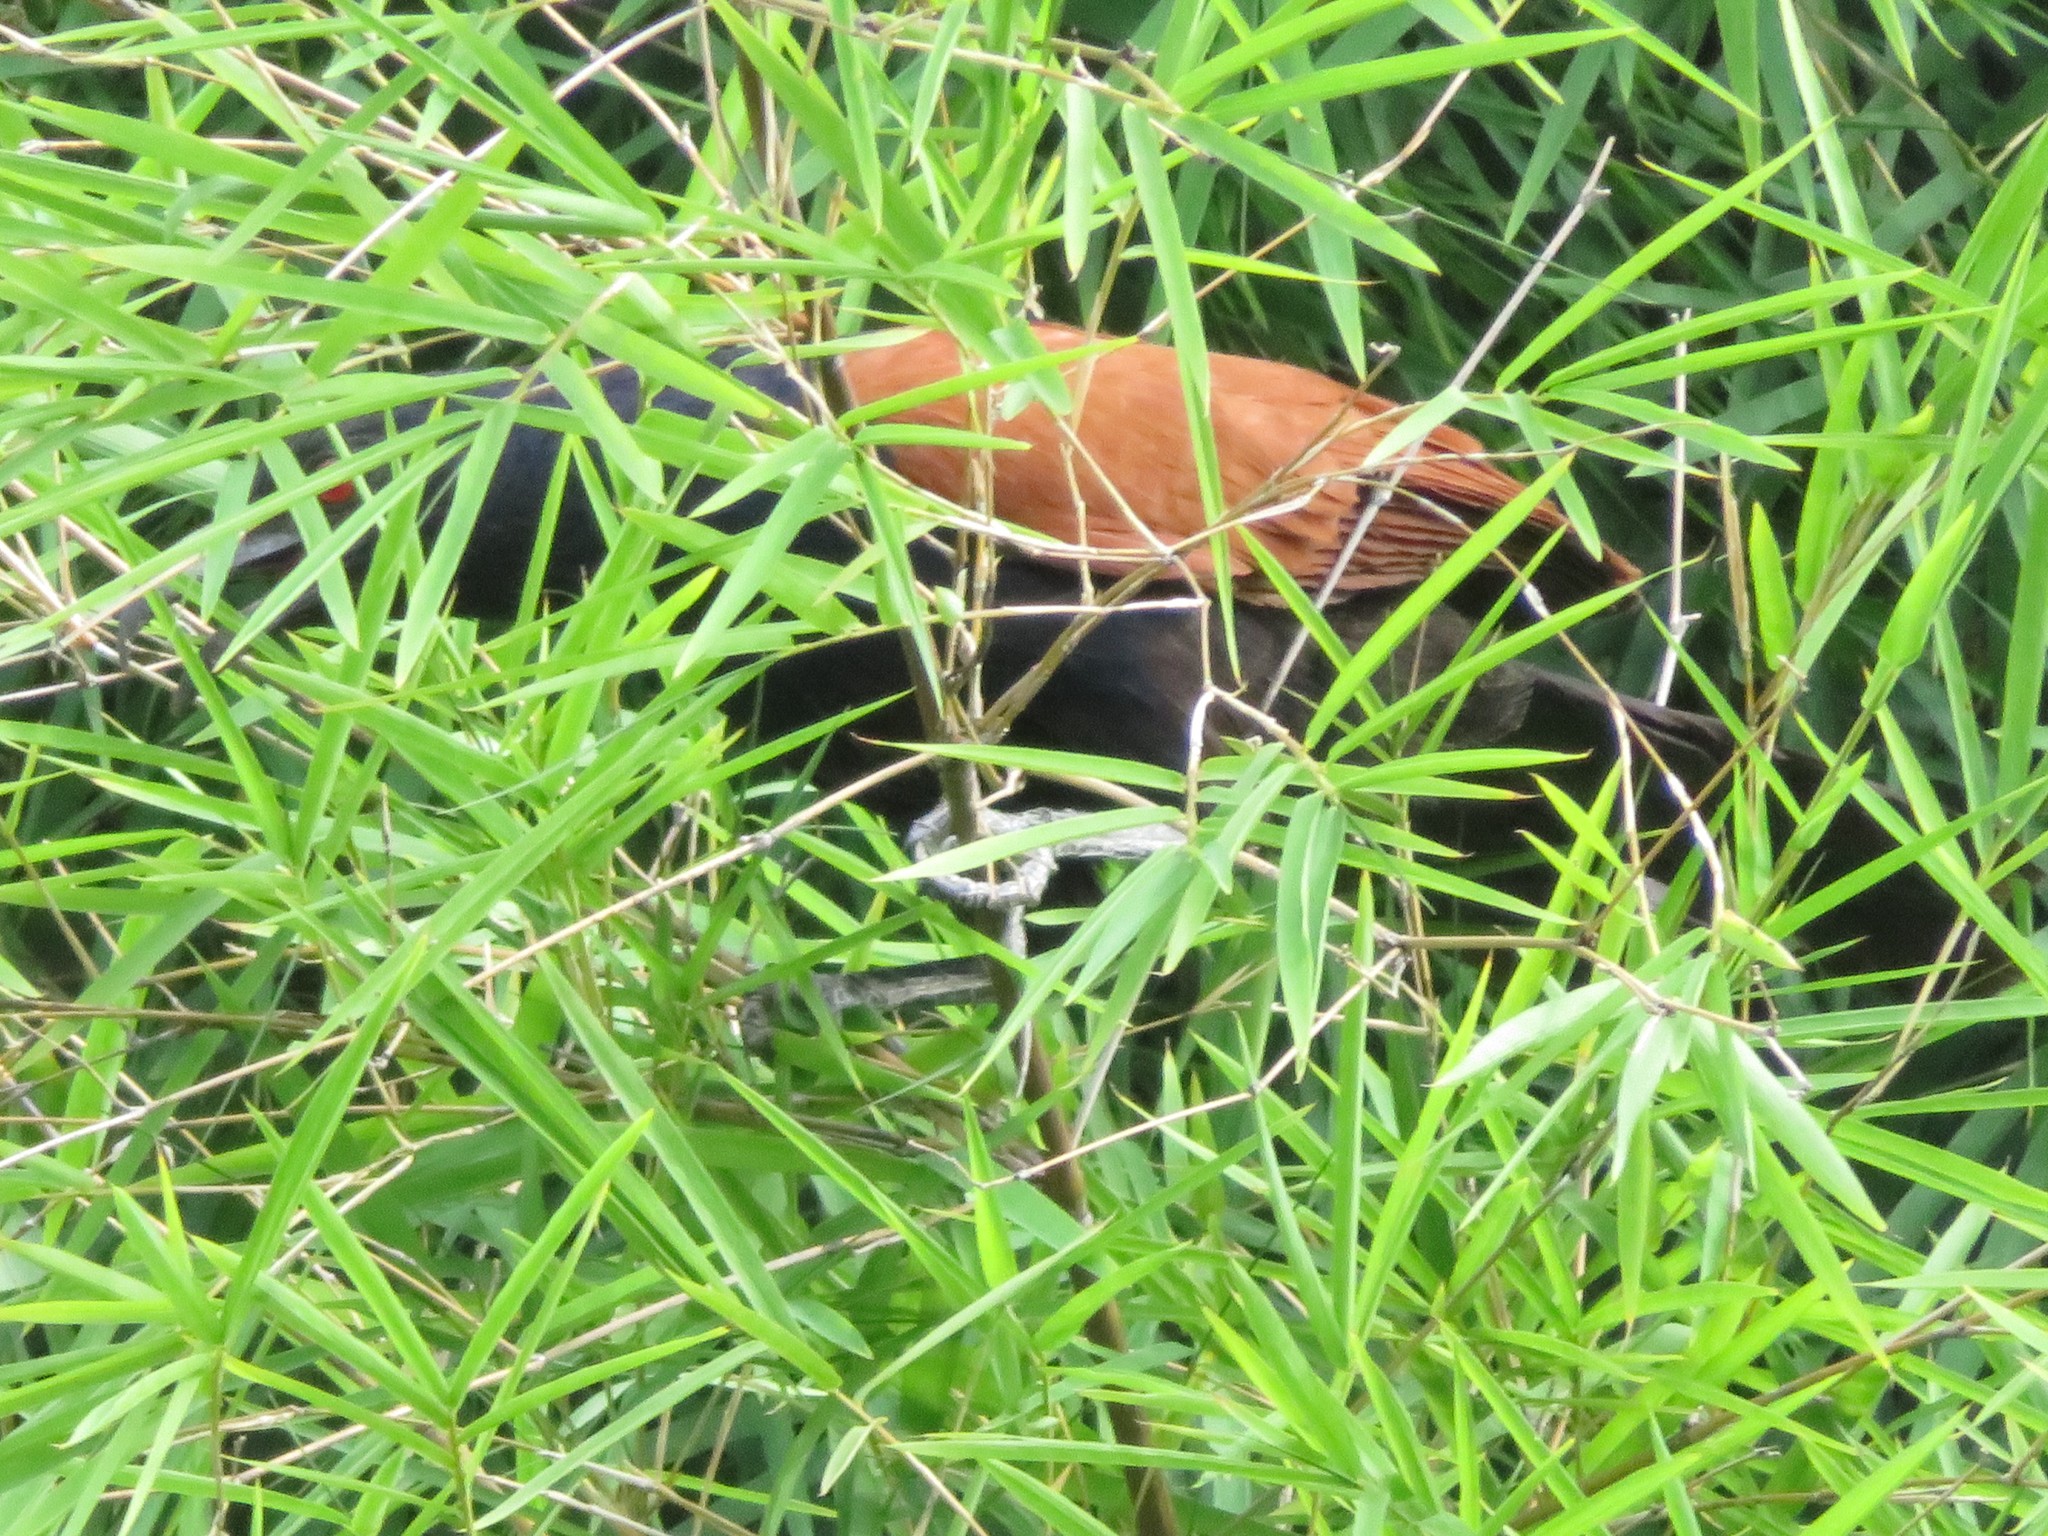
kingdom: Animalia
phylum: Chordata
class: Aves
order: Cuculiformes
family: Cuculidae
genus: Centropus
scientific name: Centropus sinensis
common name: Greater coucal
